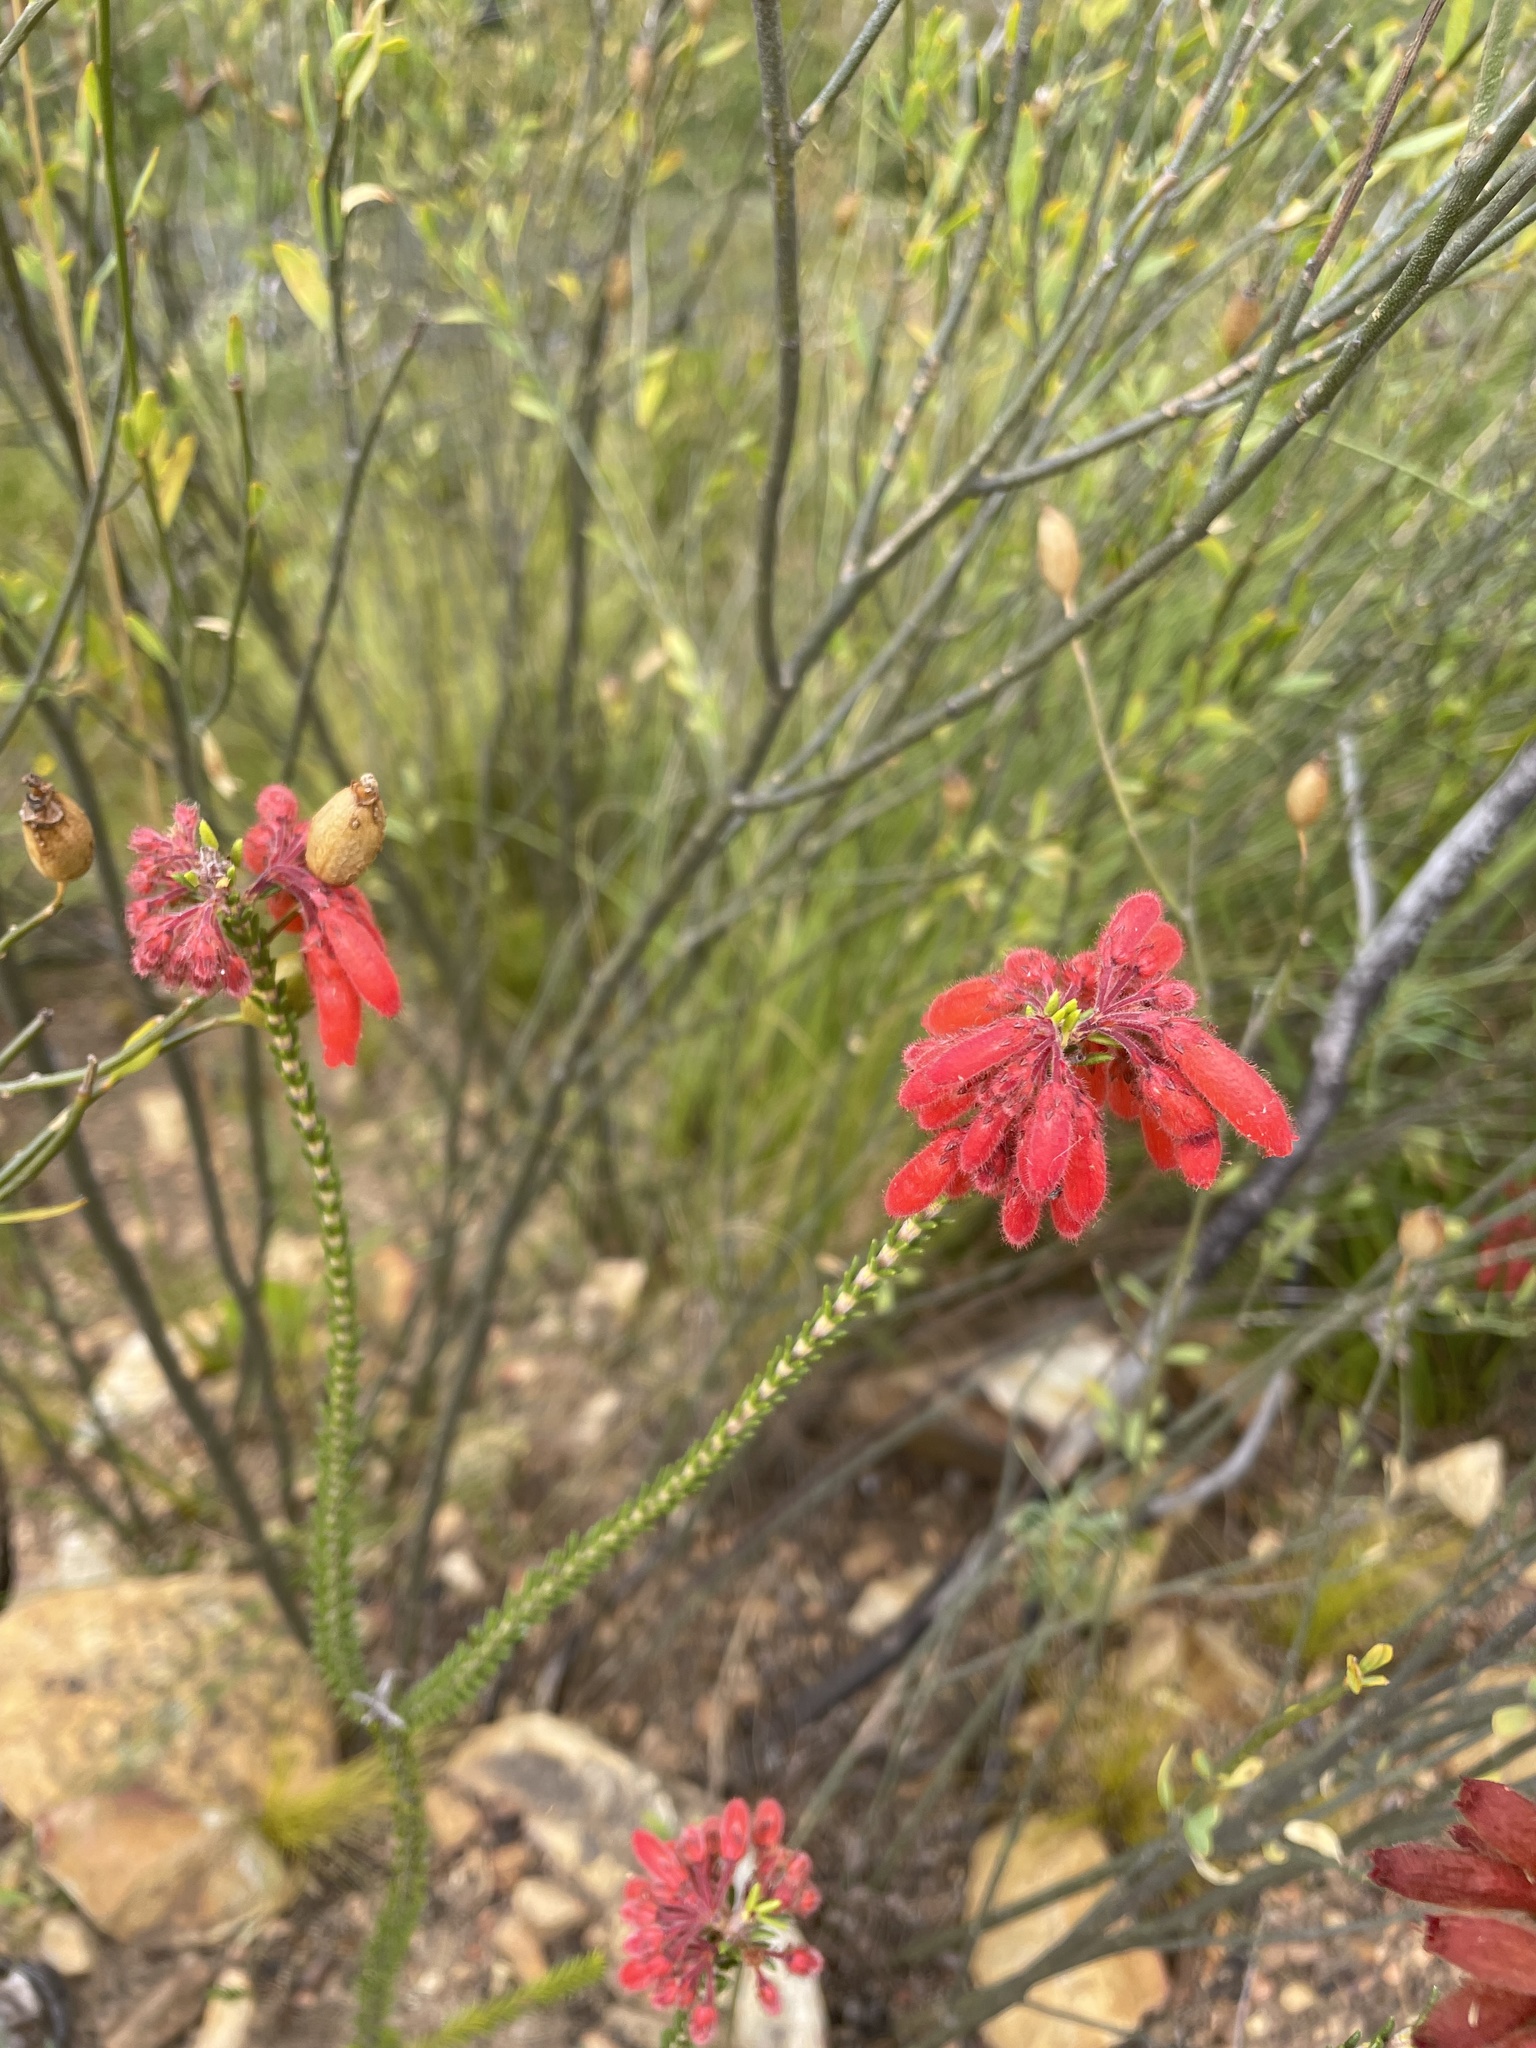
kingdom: Plantae
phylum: Tracheophyta
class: Magnoliopsida
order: Ericales
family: Ericaceae
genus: Erica
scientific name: Erica cerinthoides
